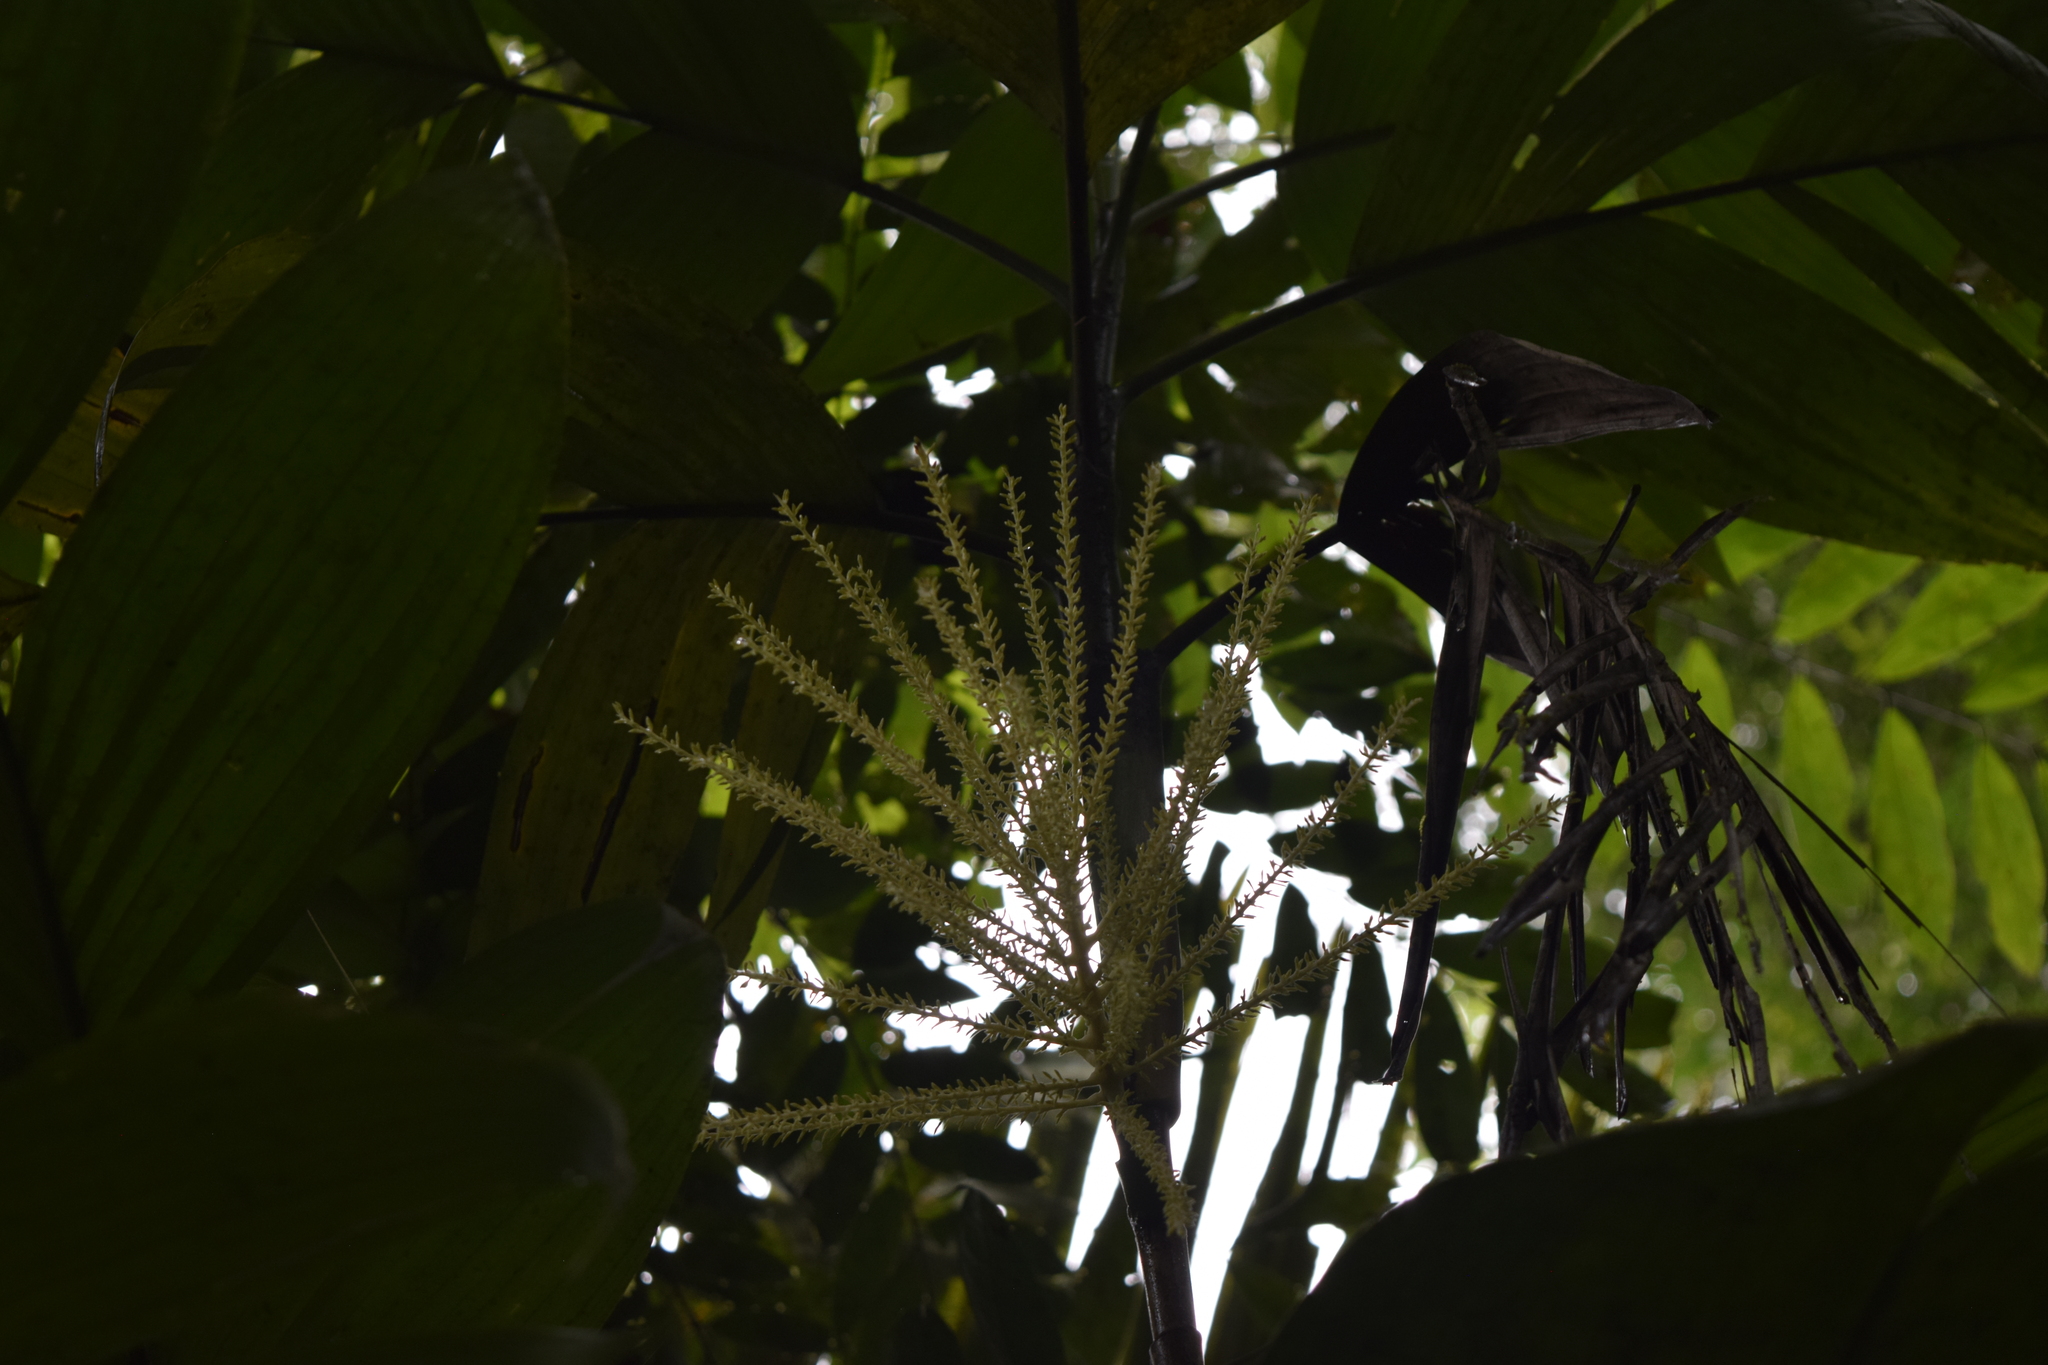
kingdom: Plantae
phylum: Tracheophyta
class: Liliopsida
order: Arecales
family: Arecaceae
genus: Hyospathe
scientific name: Hyospathe elegans
